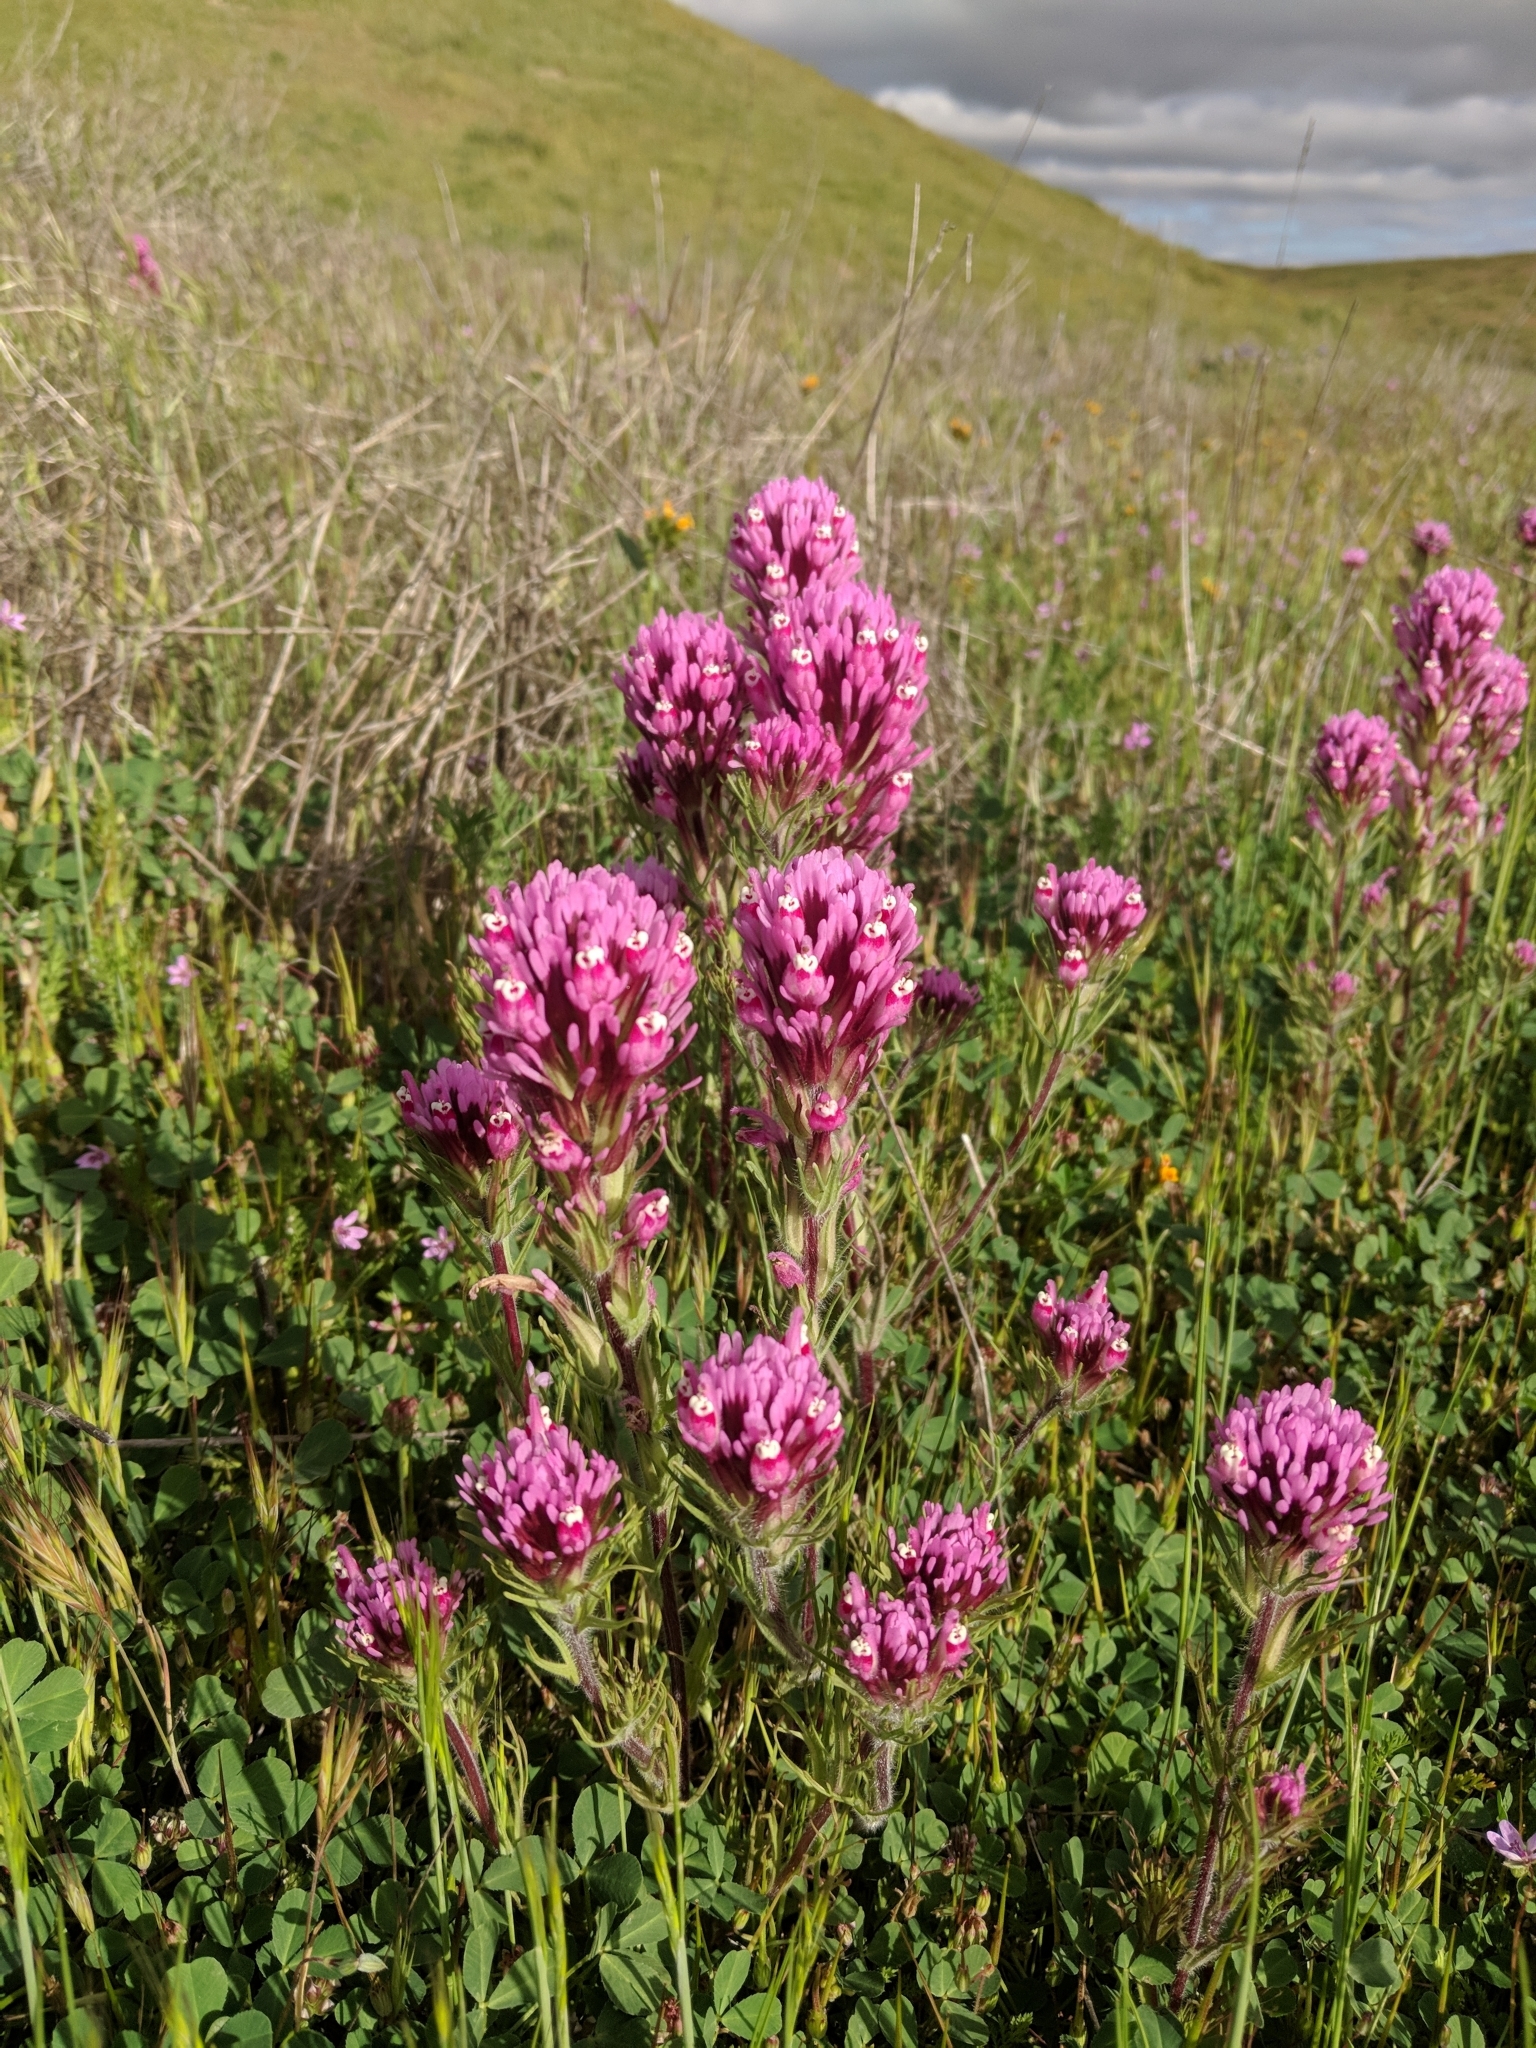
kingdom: Plantae
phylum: Tracheophyta
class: Magnoliopsida
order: Lamiales
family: Orobanchaceae
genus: Castilleja
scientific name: Castilleja exserta
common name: Purple owl-clover
